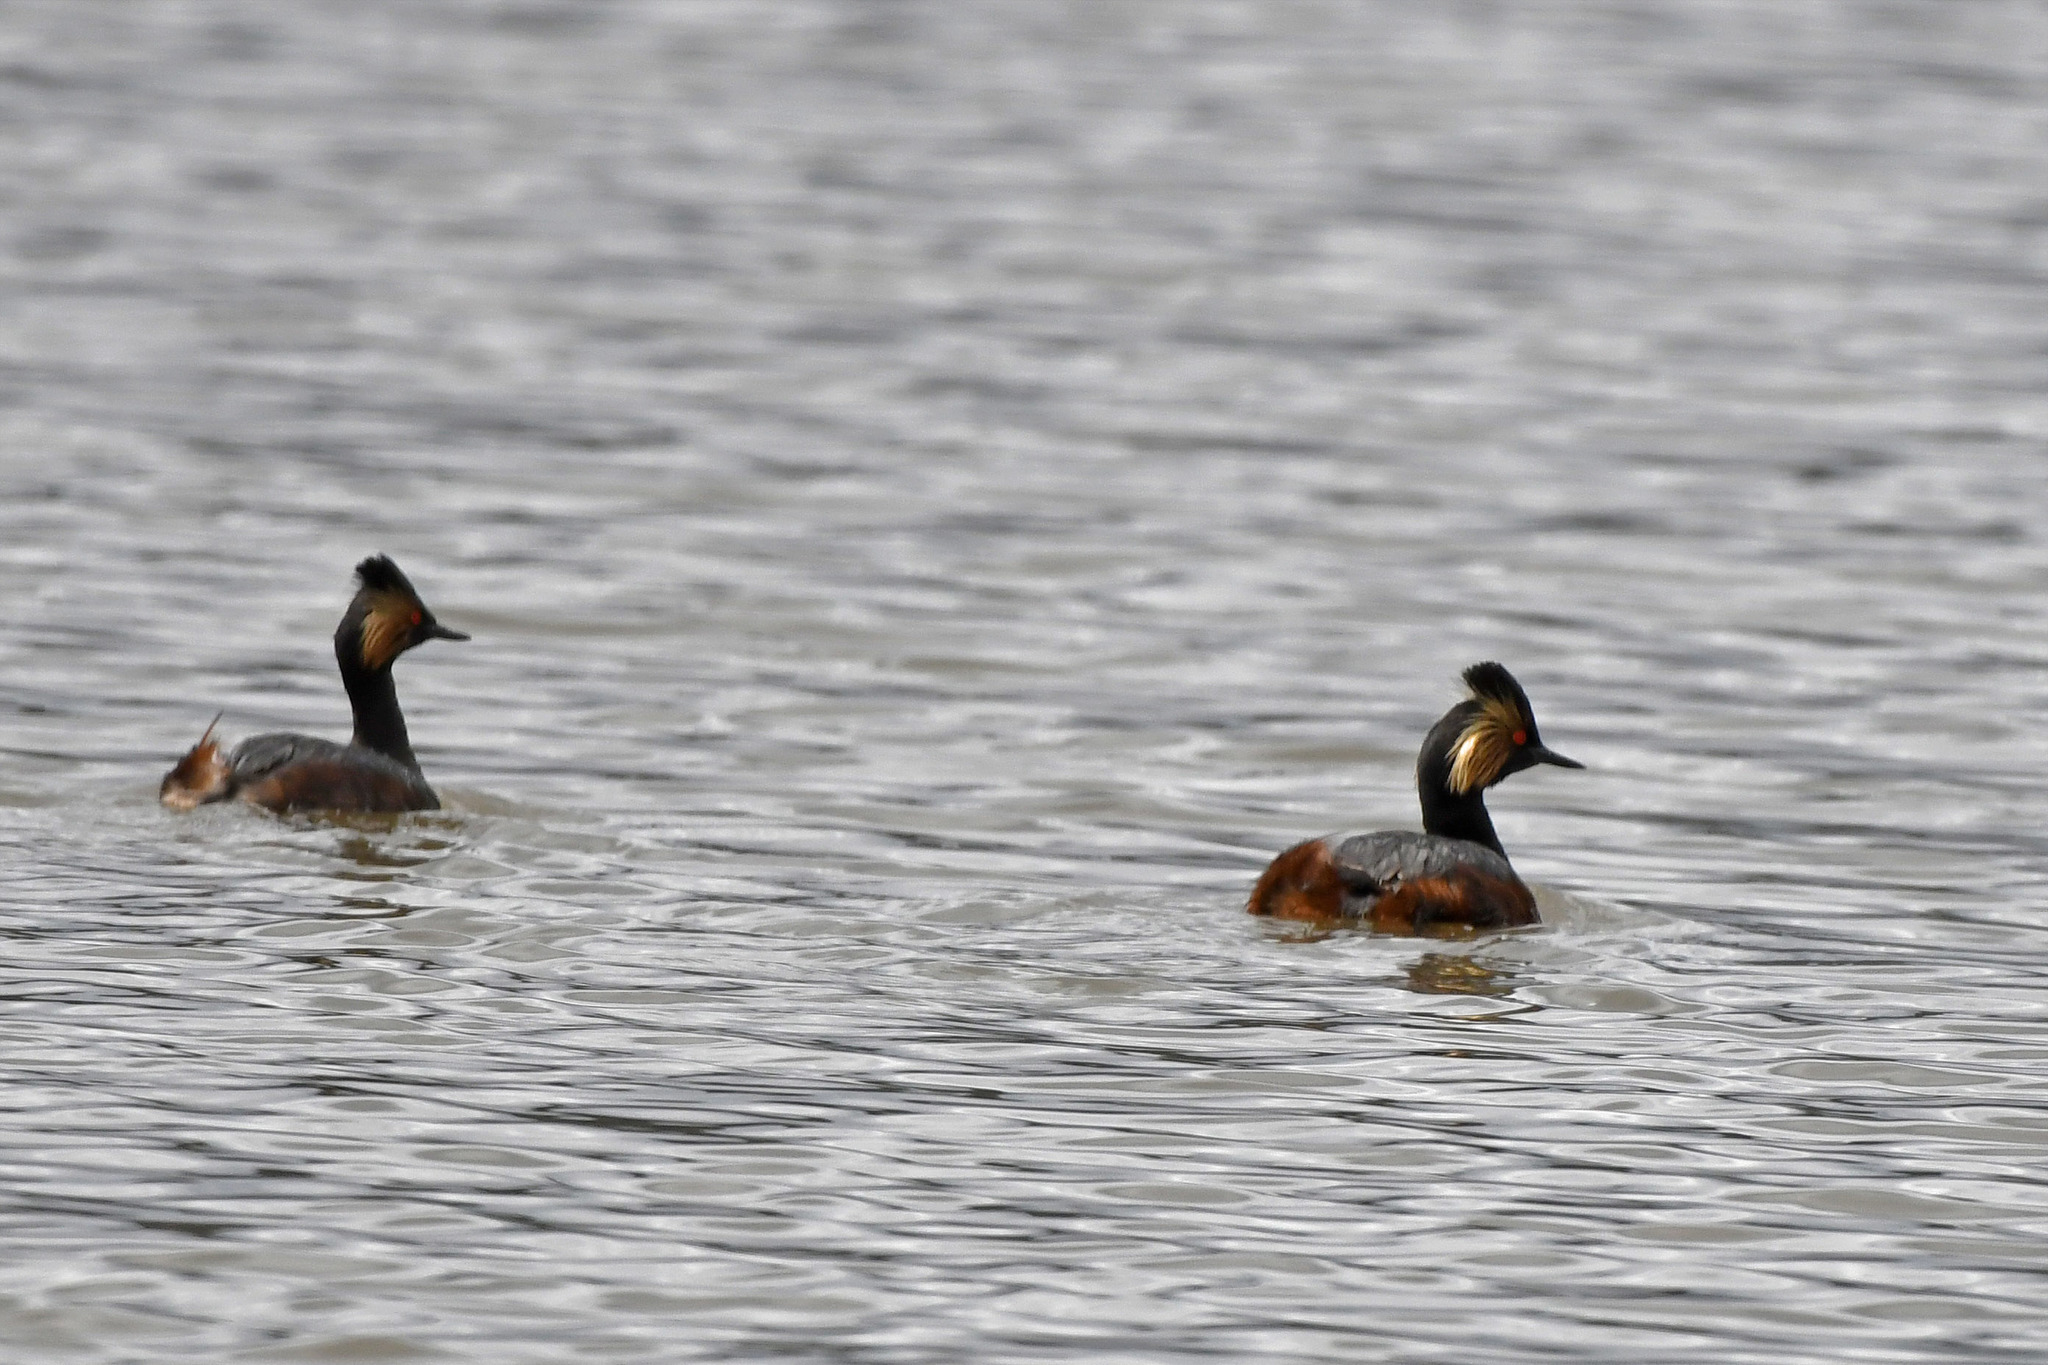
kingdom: Animalia
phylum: Chordata
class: Aves
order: Podicipediformes
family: Podicipedidae
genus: Podiceps
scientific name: Podiceps nigricollis
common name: Black-necked grebe
